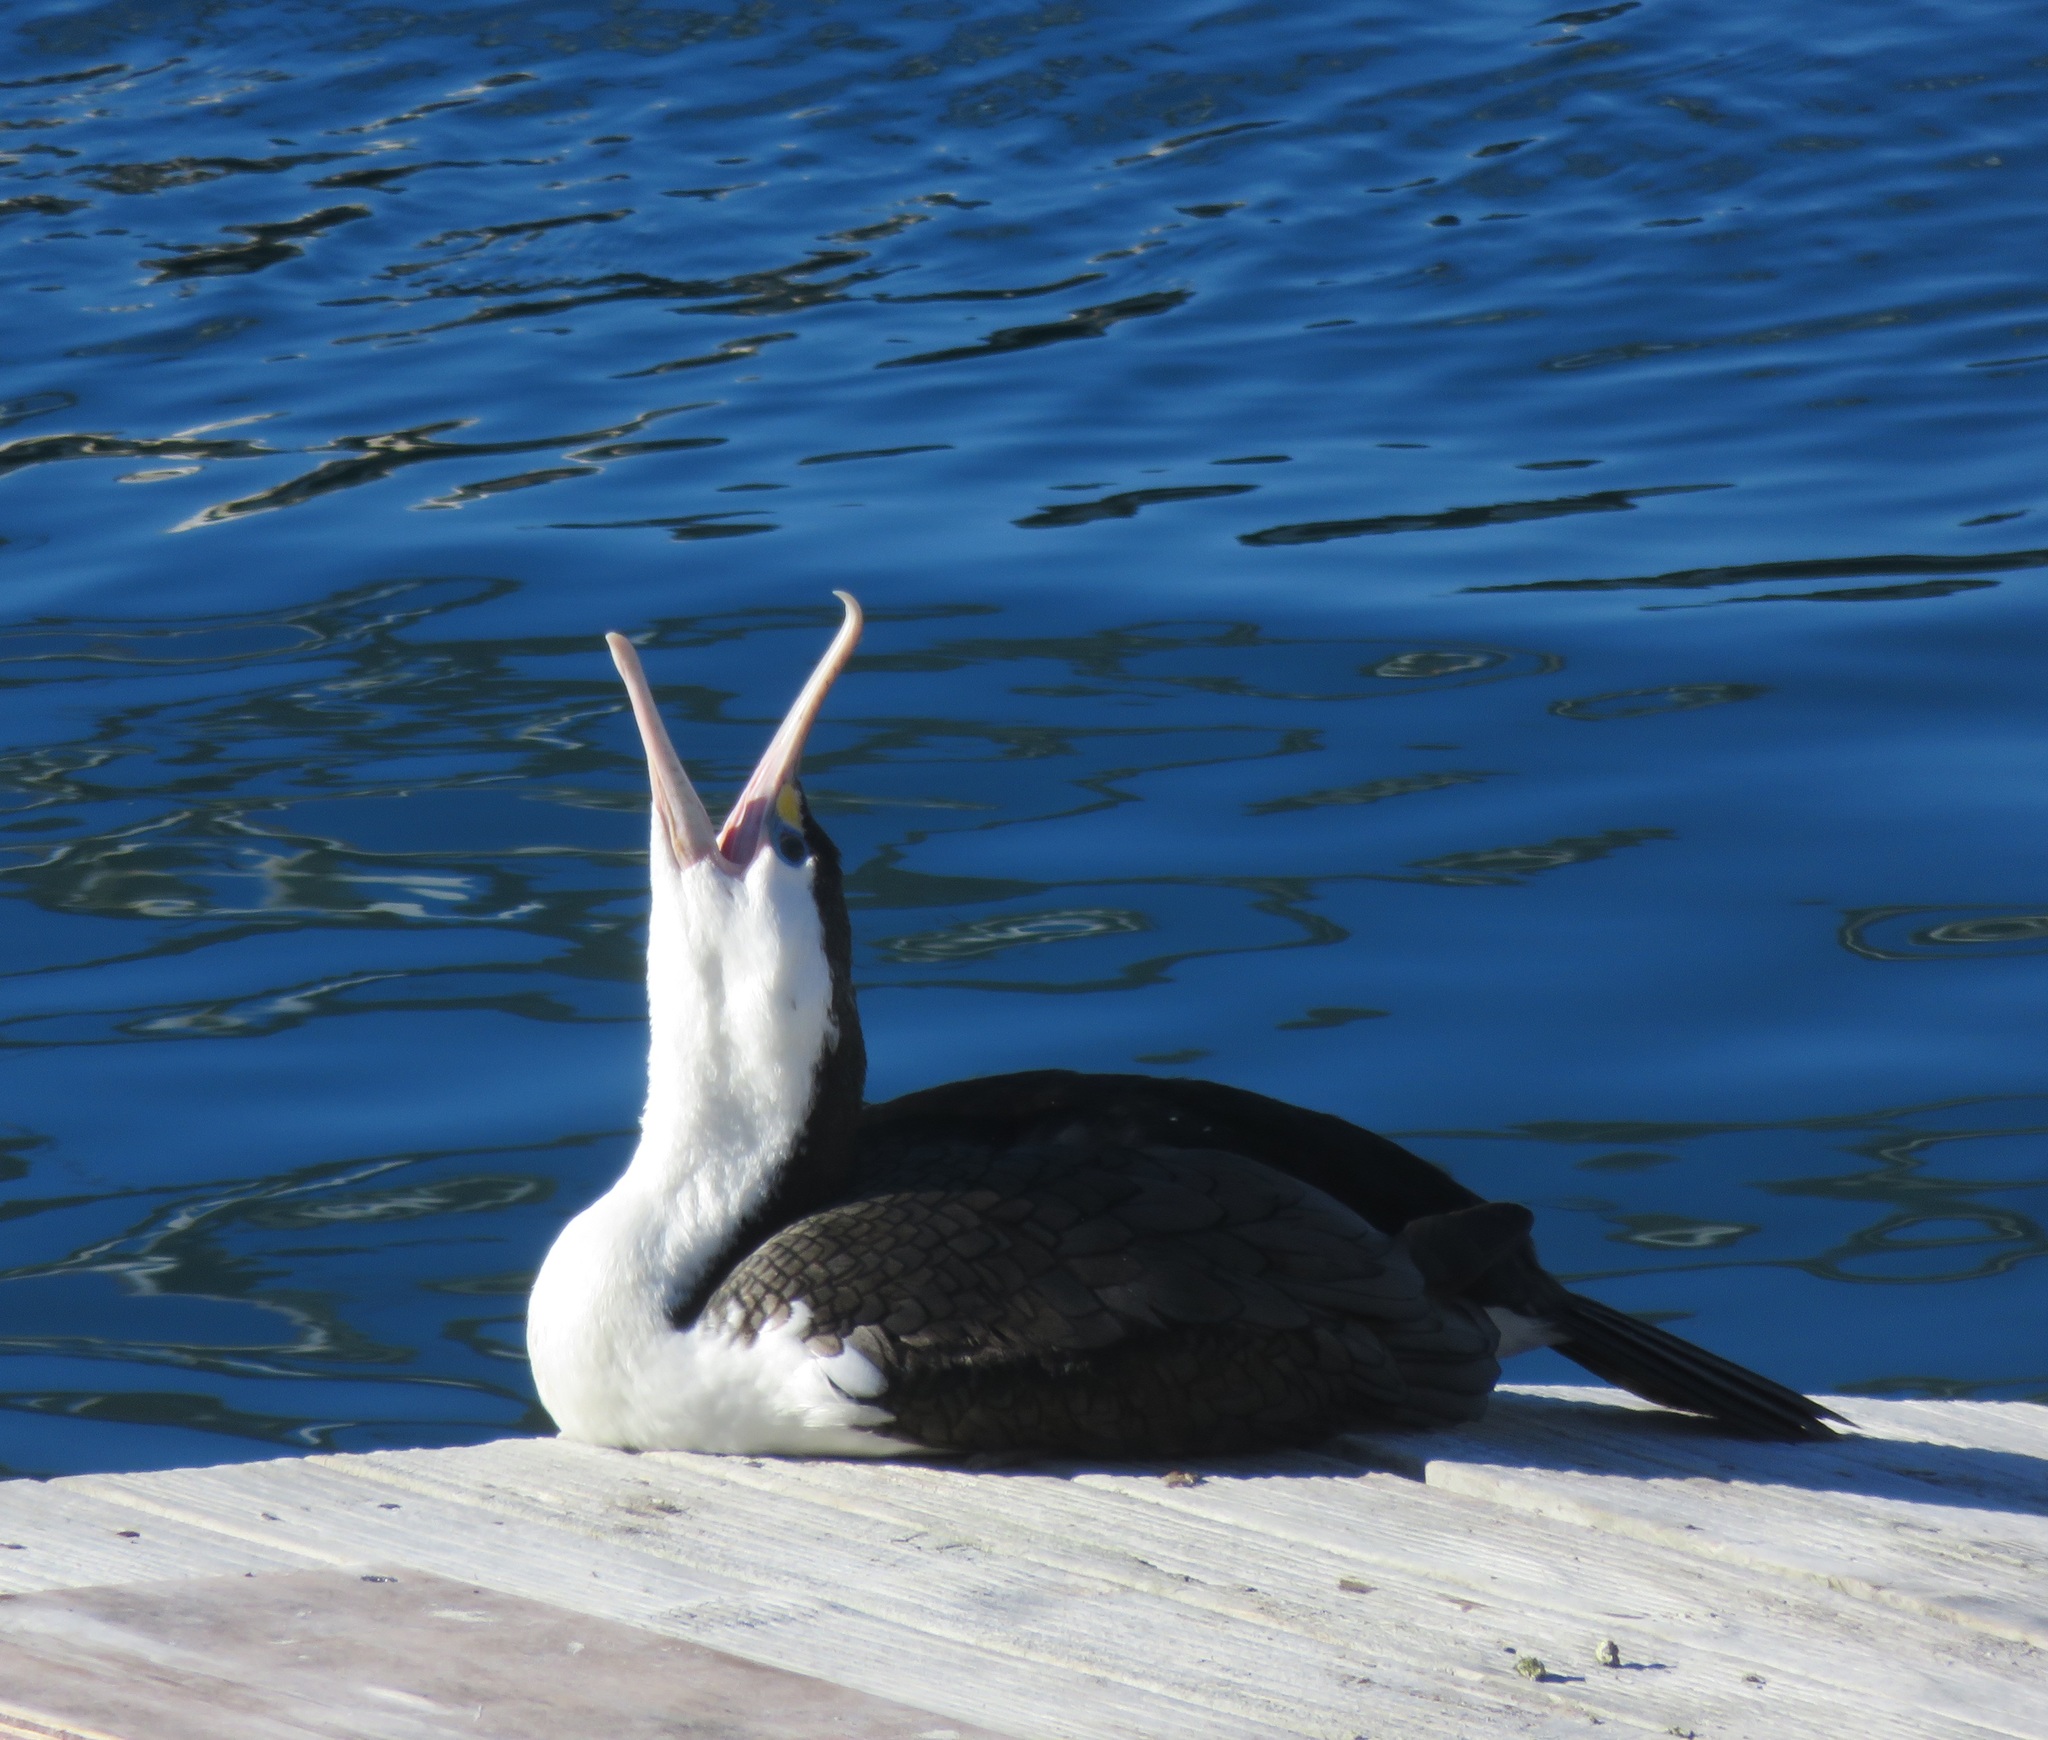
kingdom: Animalia
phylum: Chordata
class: Aves
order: Suliformes
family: Phalacrocoracidae
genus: Phalacrocorax
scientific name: Phalacrocorax varius
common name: Pied cormorant
